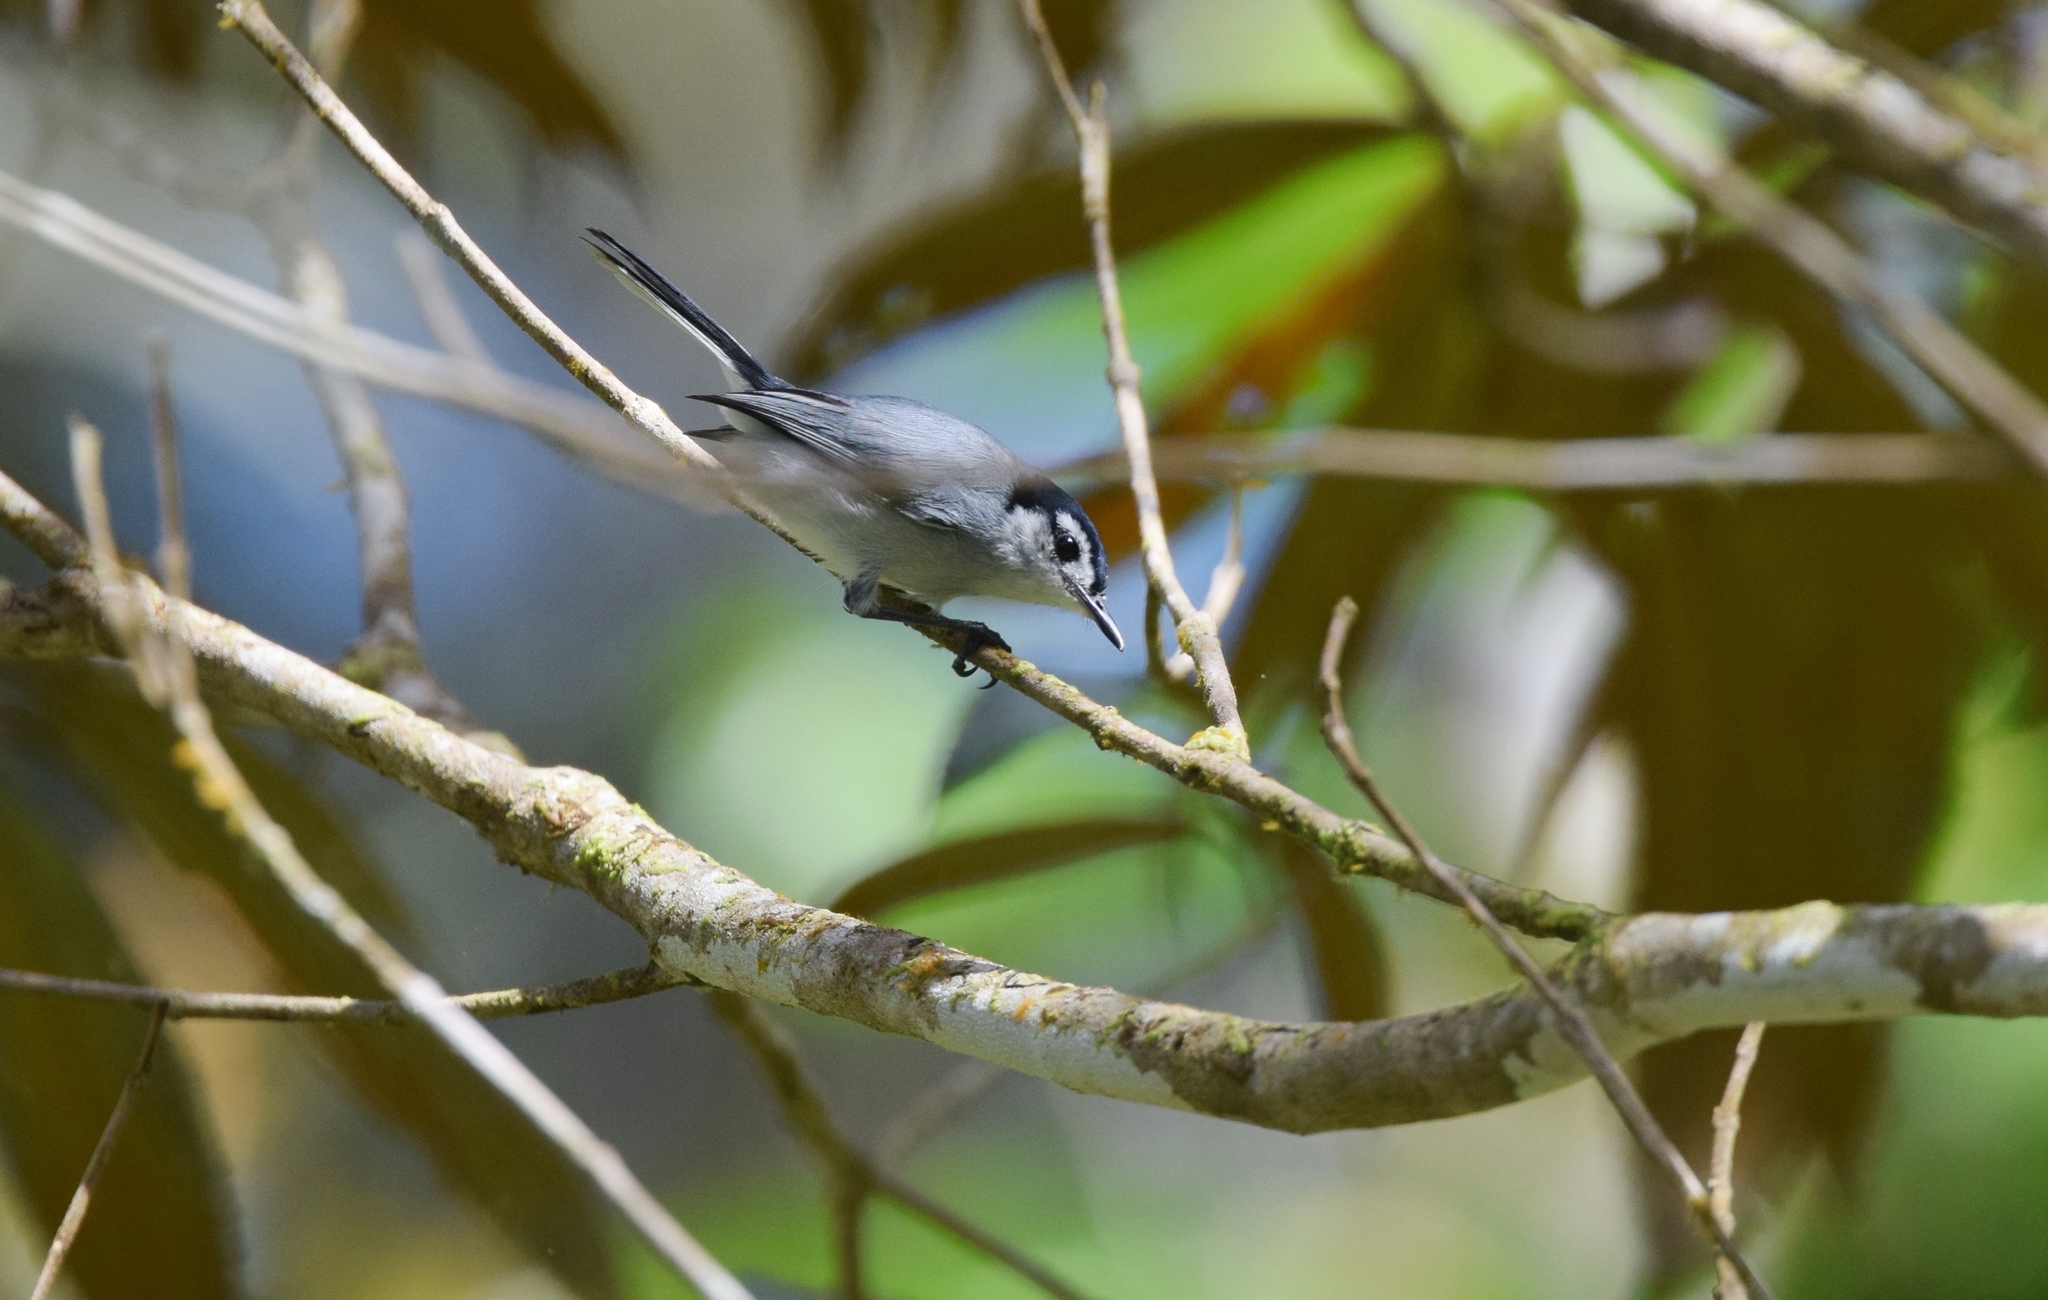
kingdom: Animalia
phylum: Chordata
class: Aves
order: Passeriformes
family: Polioptilidae
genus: Polioptila
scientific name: Polioptila plumbea
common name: Tropical gnatcatcher
